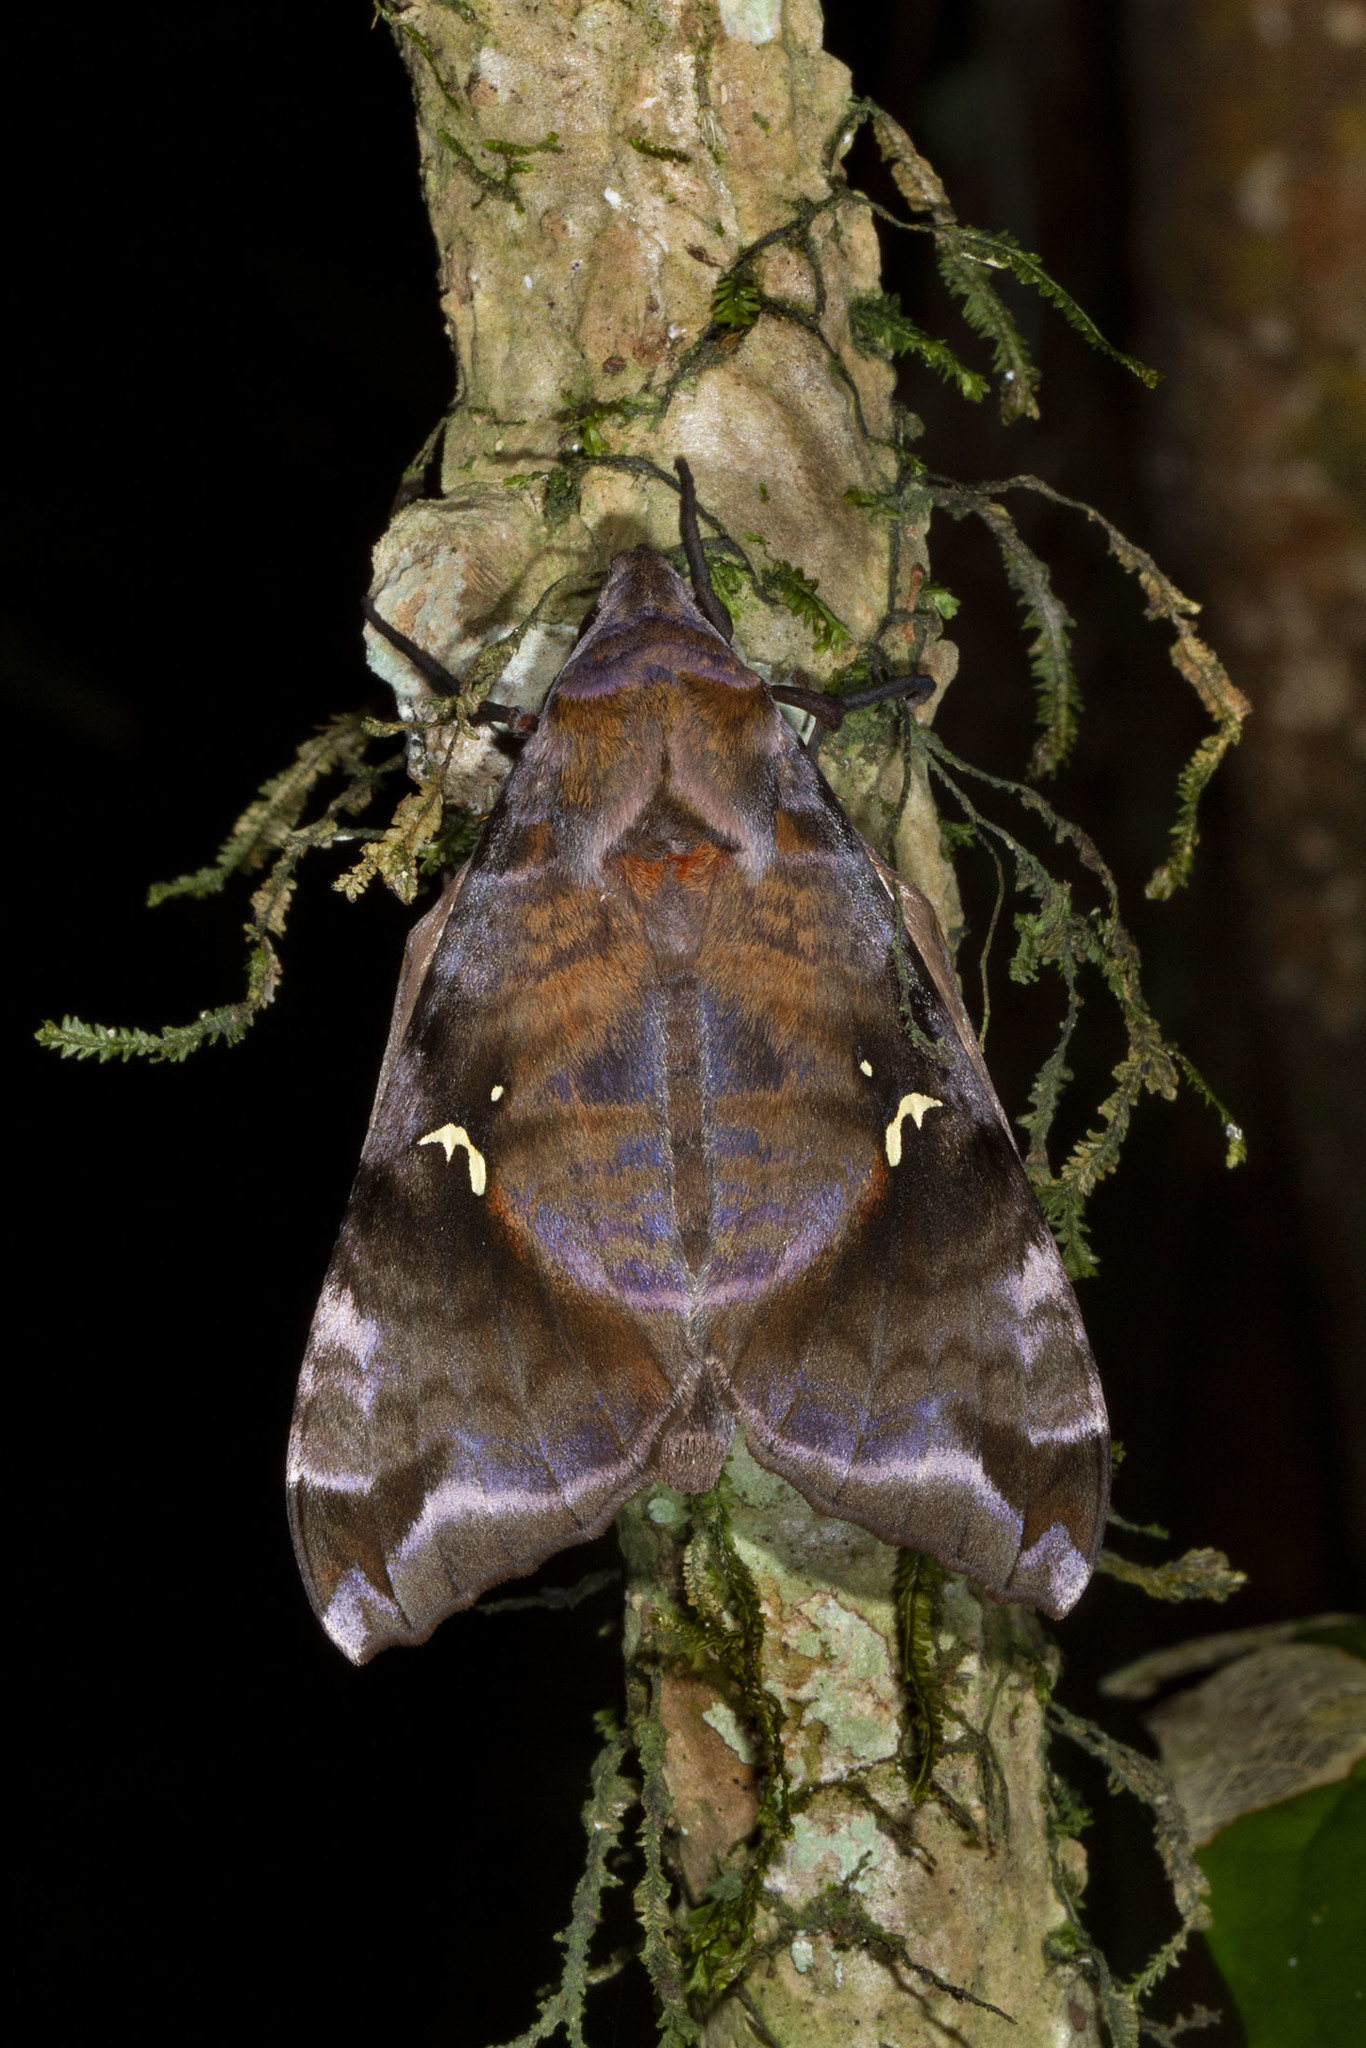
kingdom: Animalia
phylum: Arthropoda
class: Insecta
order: Lepidoptera
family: Sphingidae
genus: Maassenia
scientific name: Maassenia heydeni
